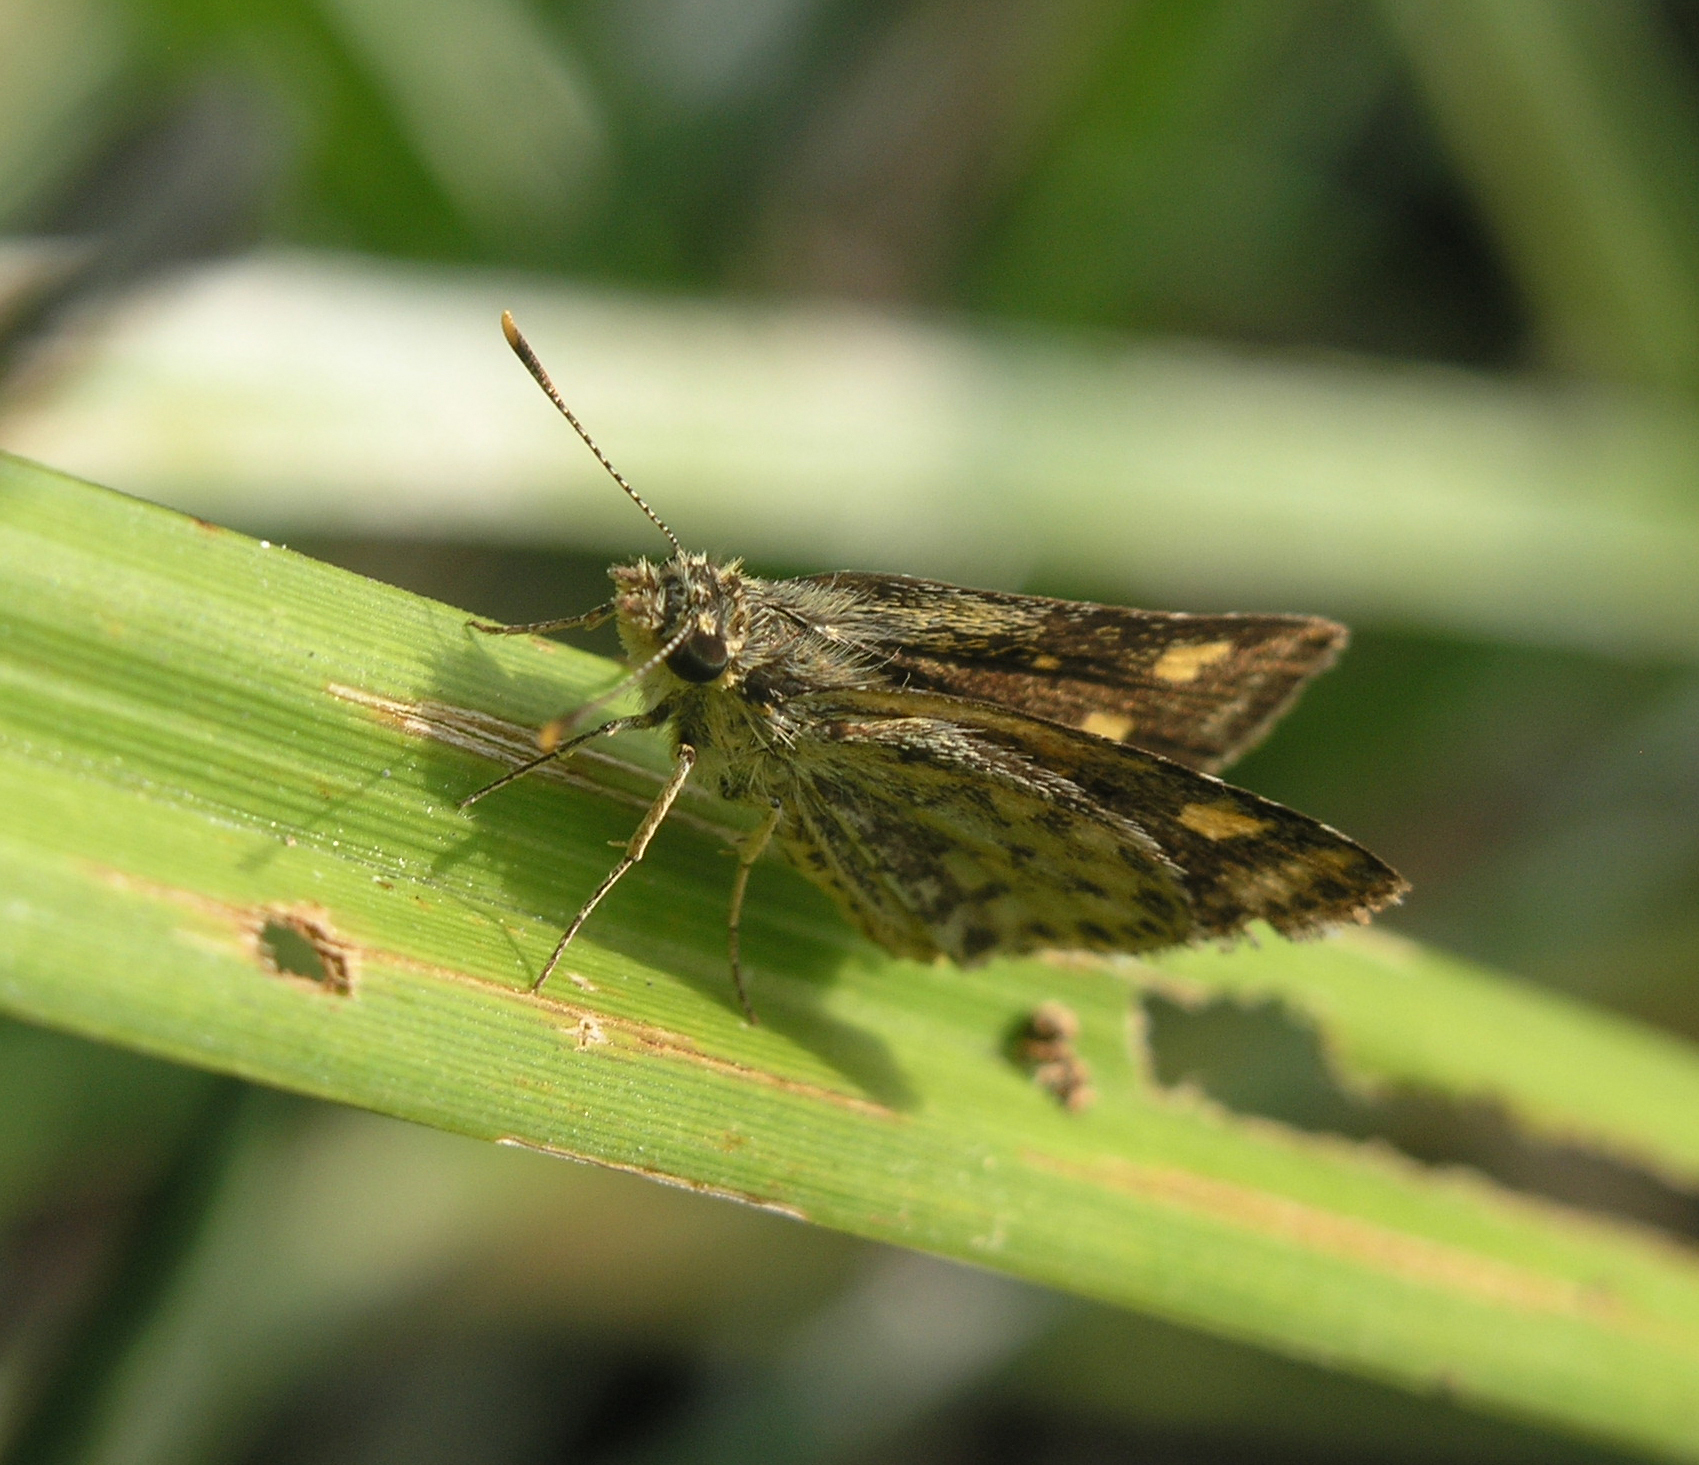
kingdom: Animalia
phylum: Arthropoda
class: Insecta
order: Lepidoptera
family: Hesperiidae
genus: Ampittia
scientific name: Ampittia dioscorides
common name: Common bush hopper
